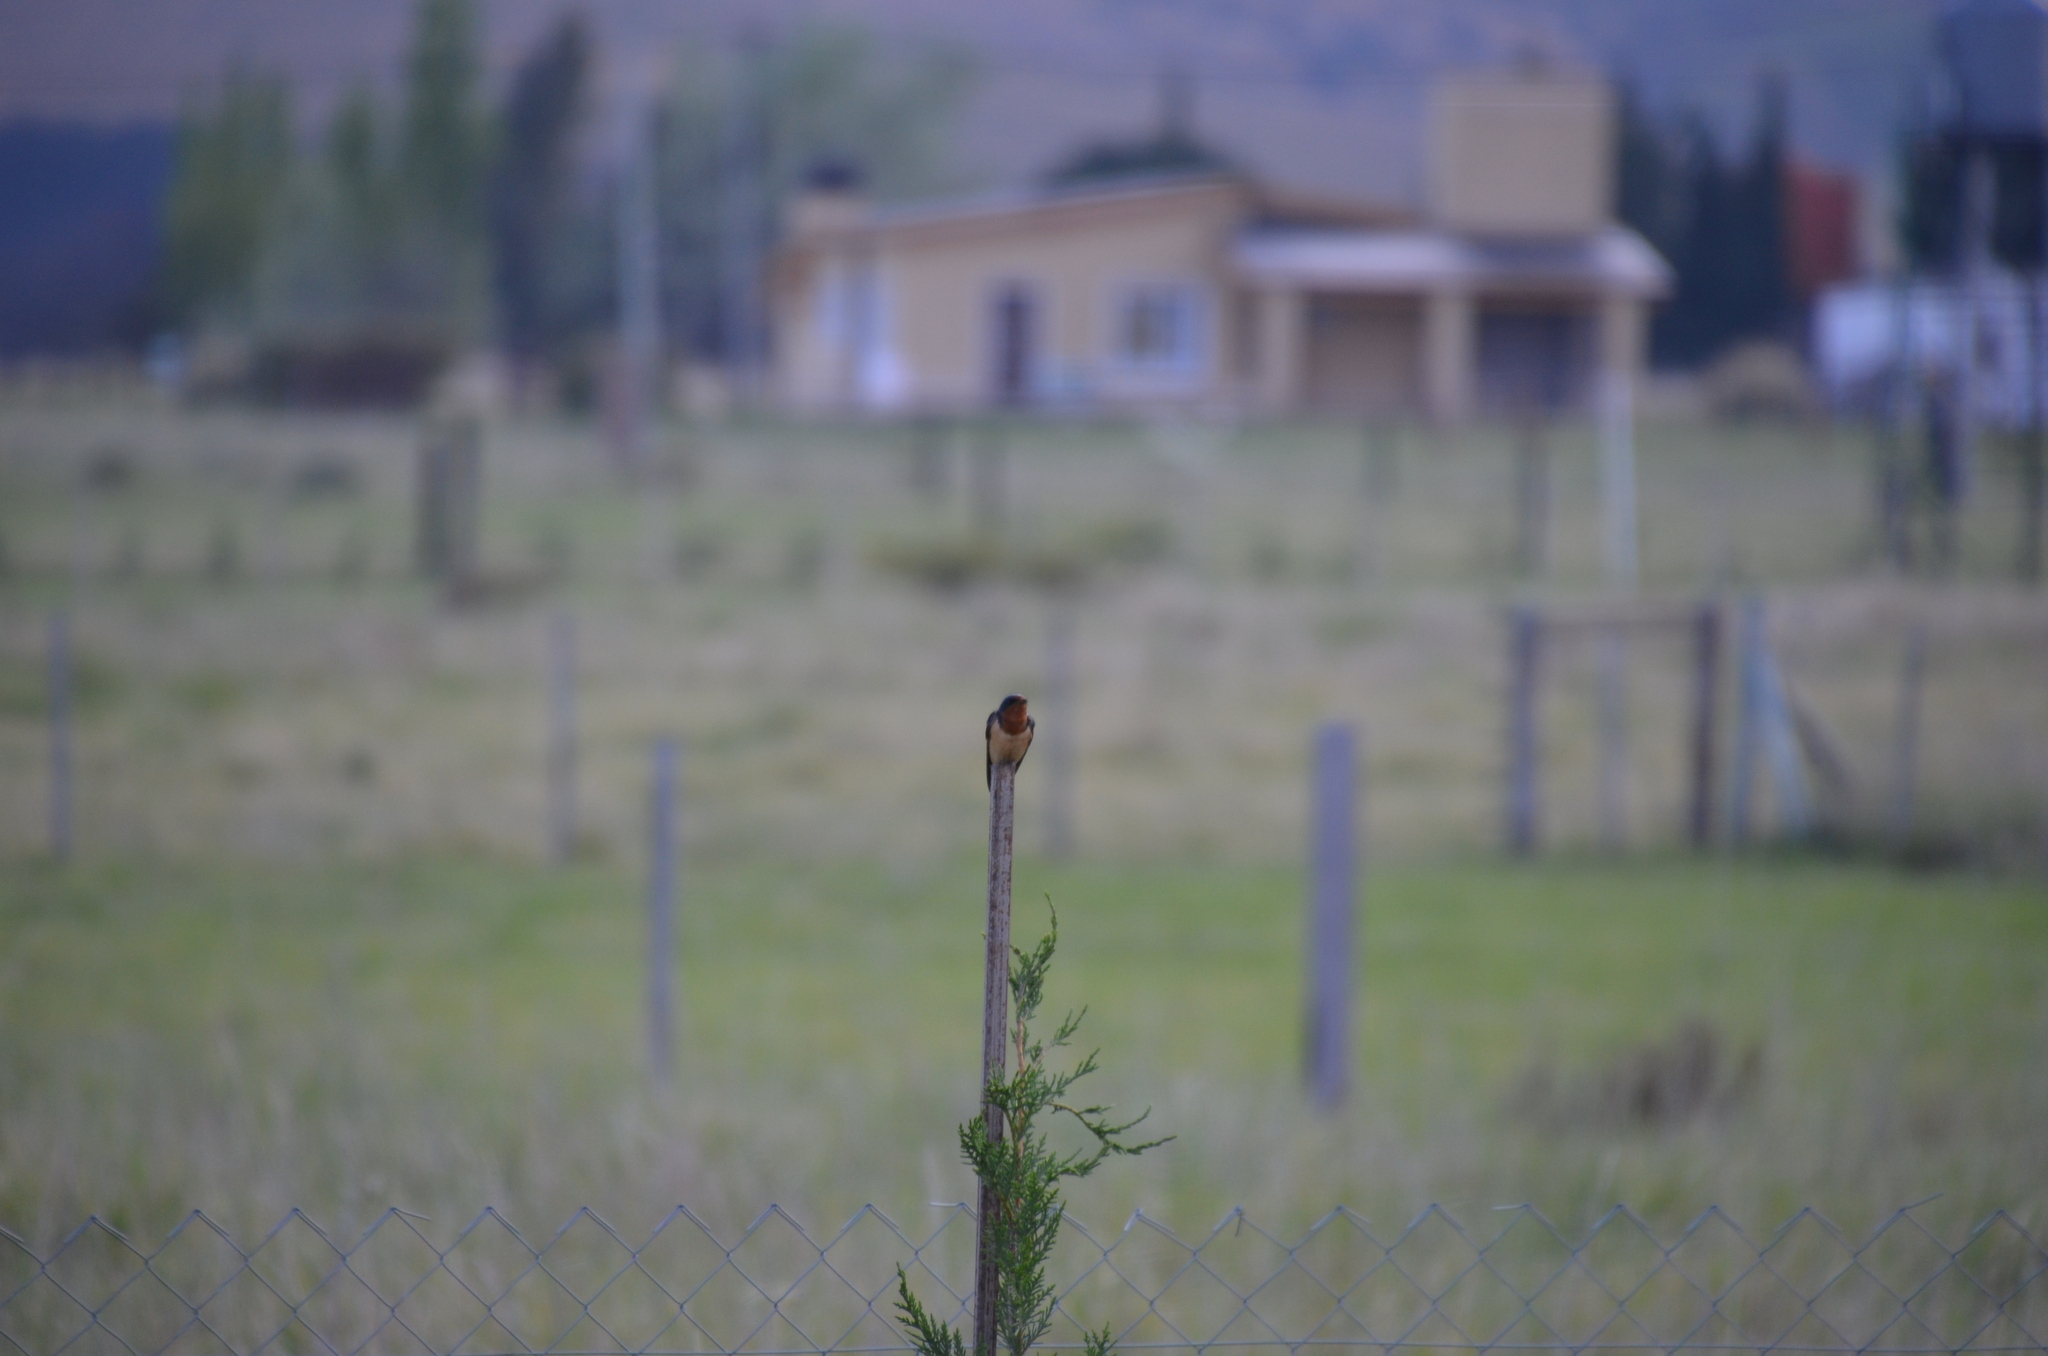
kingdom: Animalia
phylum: Chordata
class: Aves
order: Passeriformes
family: Hirundinidae
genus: Hirundo
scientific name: Hirundo rustica
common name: Barn swallow
